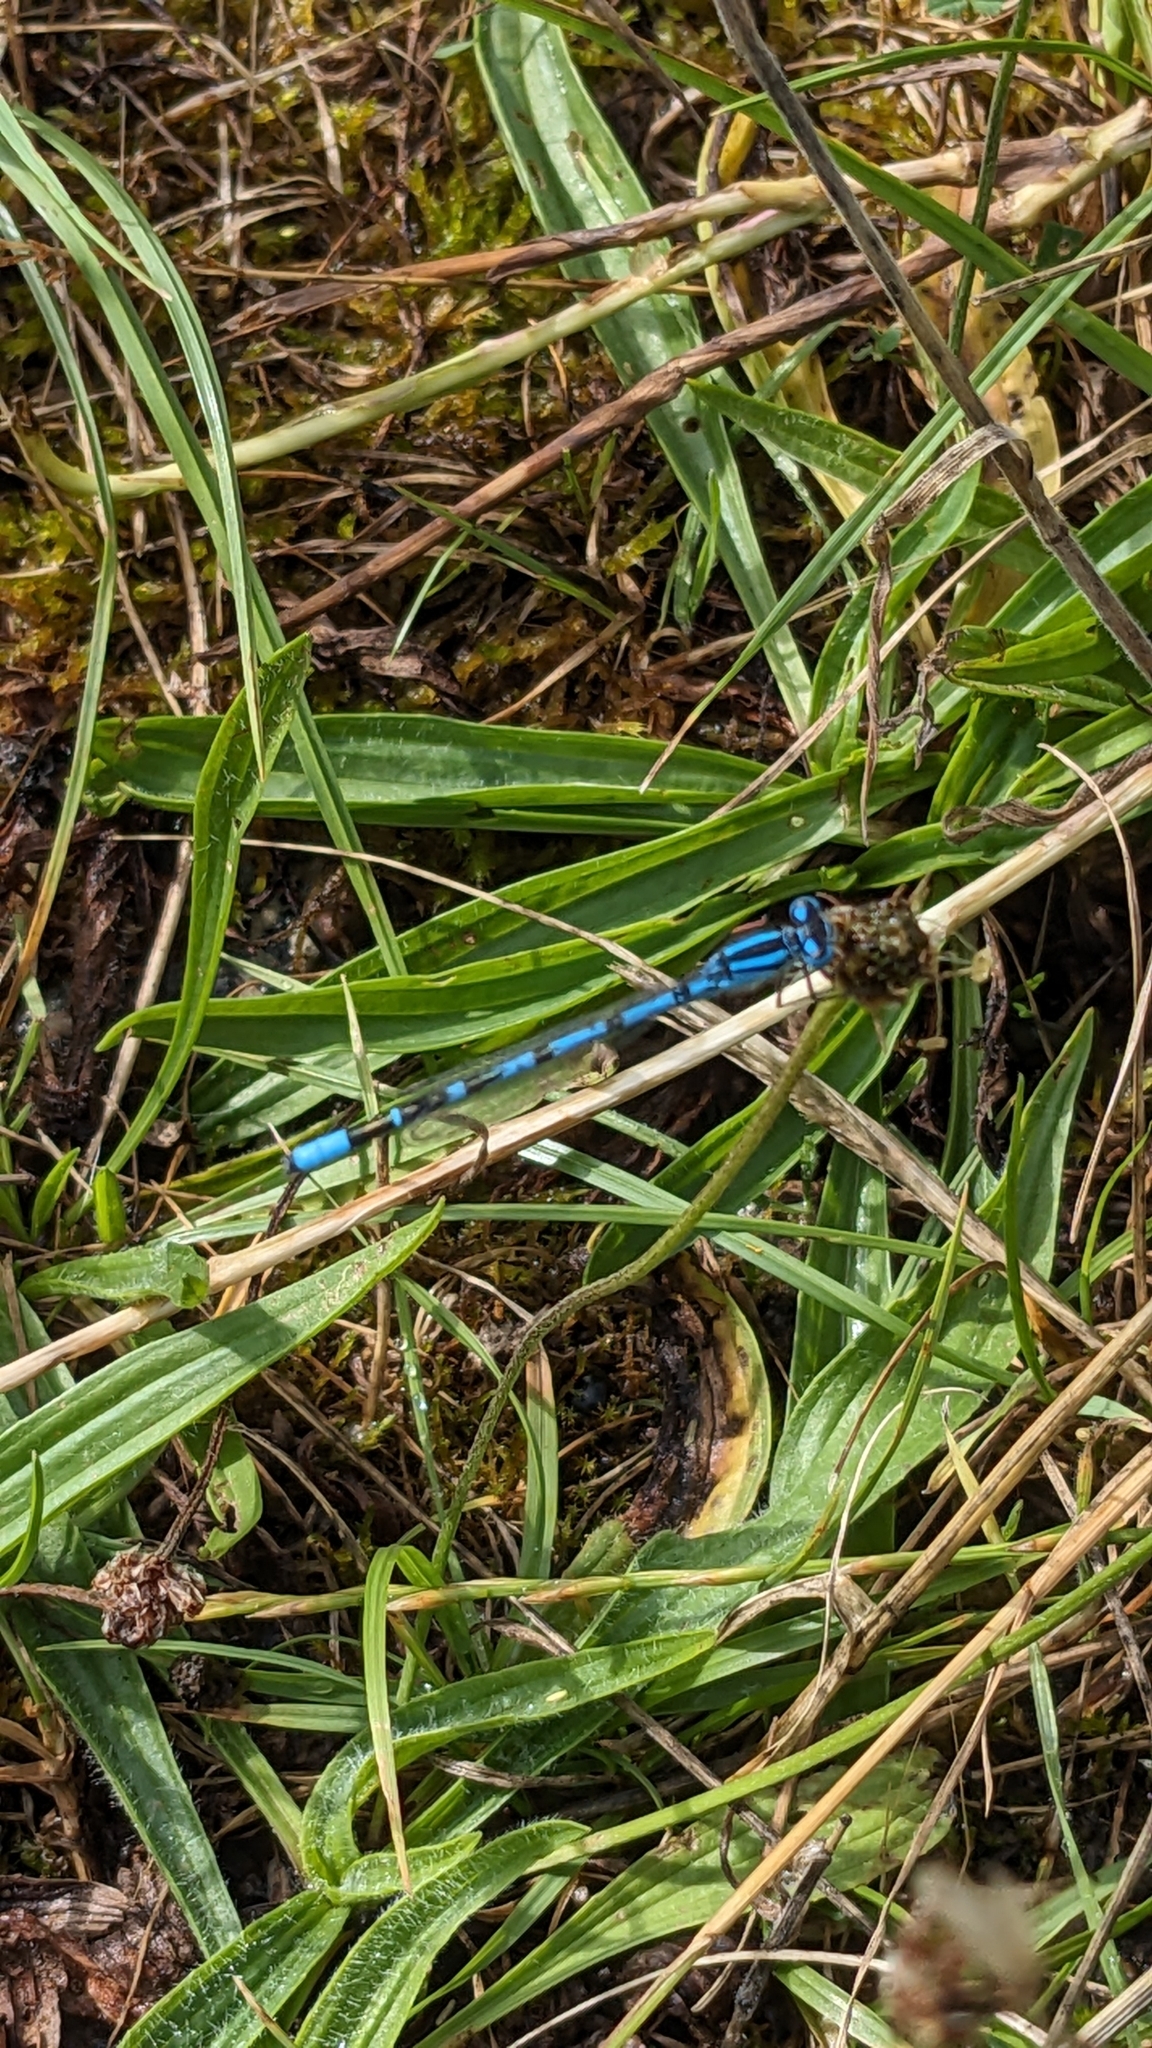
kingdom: Animalia
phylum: Arthropoda
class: Insecta
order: Odonata
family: Coenagrionidae
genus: Enallagma
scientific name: Enallagma cyathigerum
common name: Common blue damselfly
